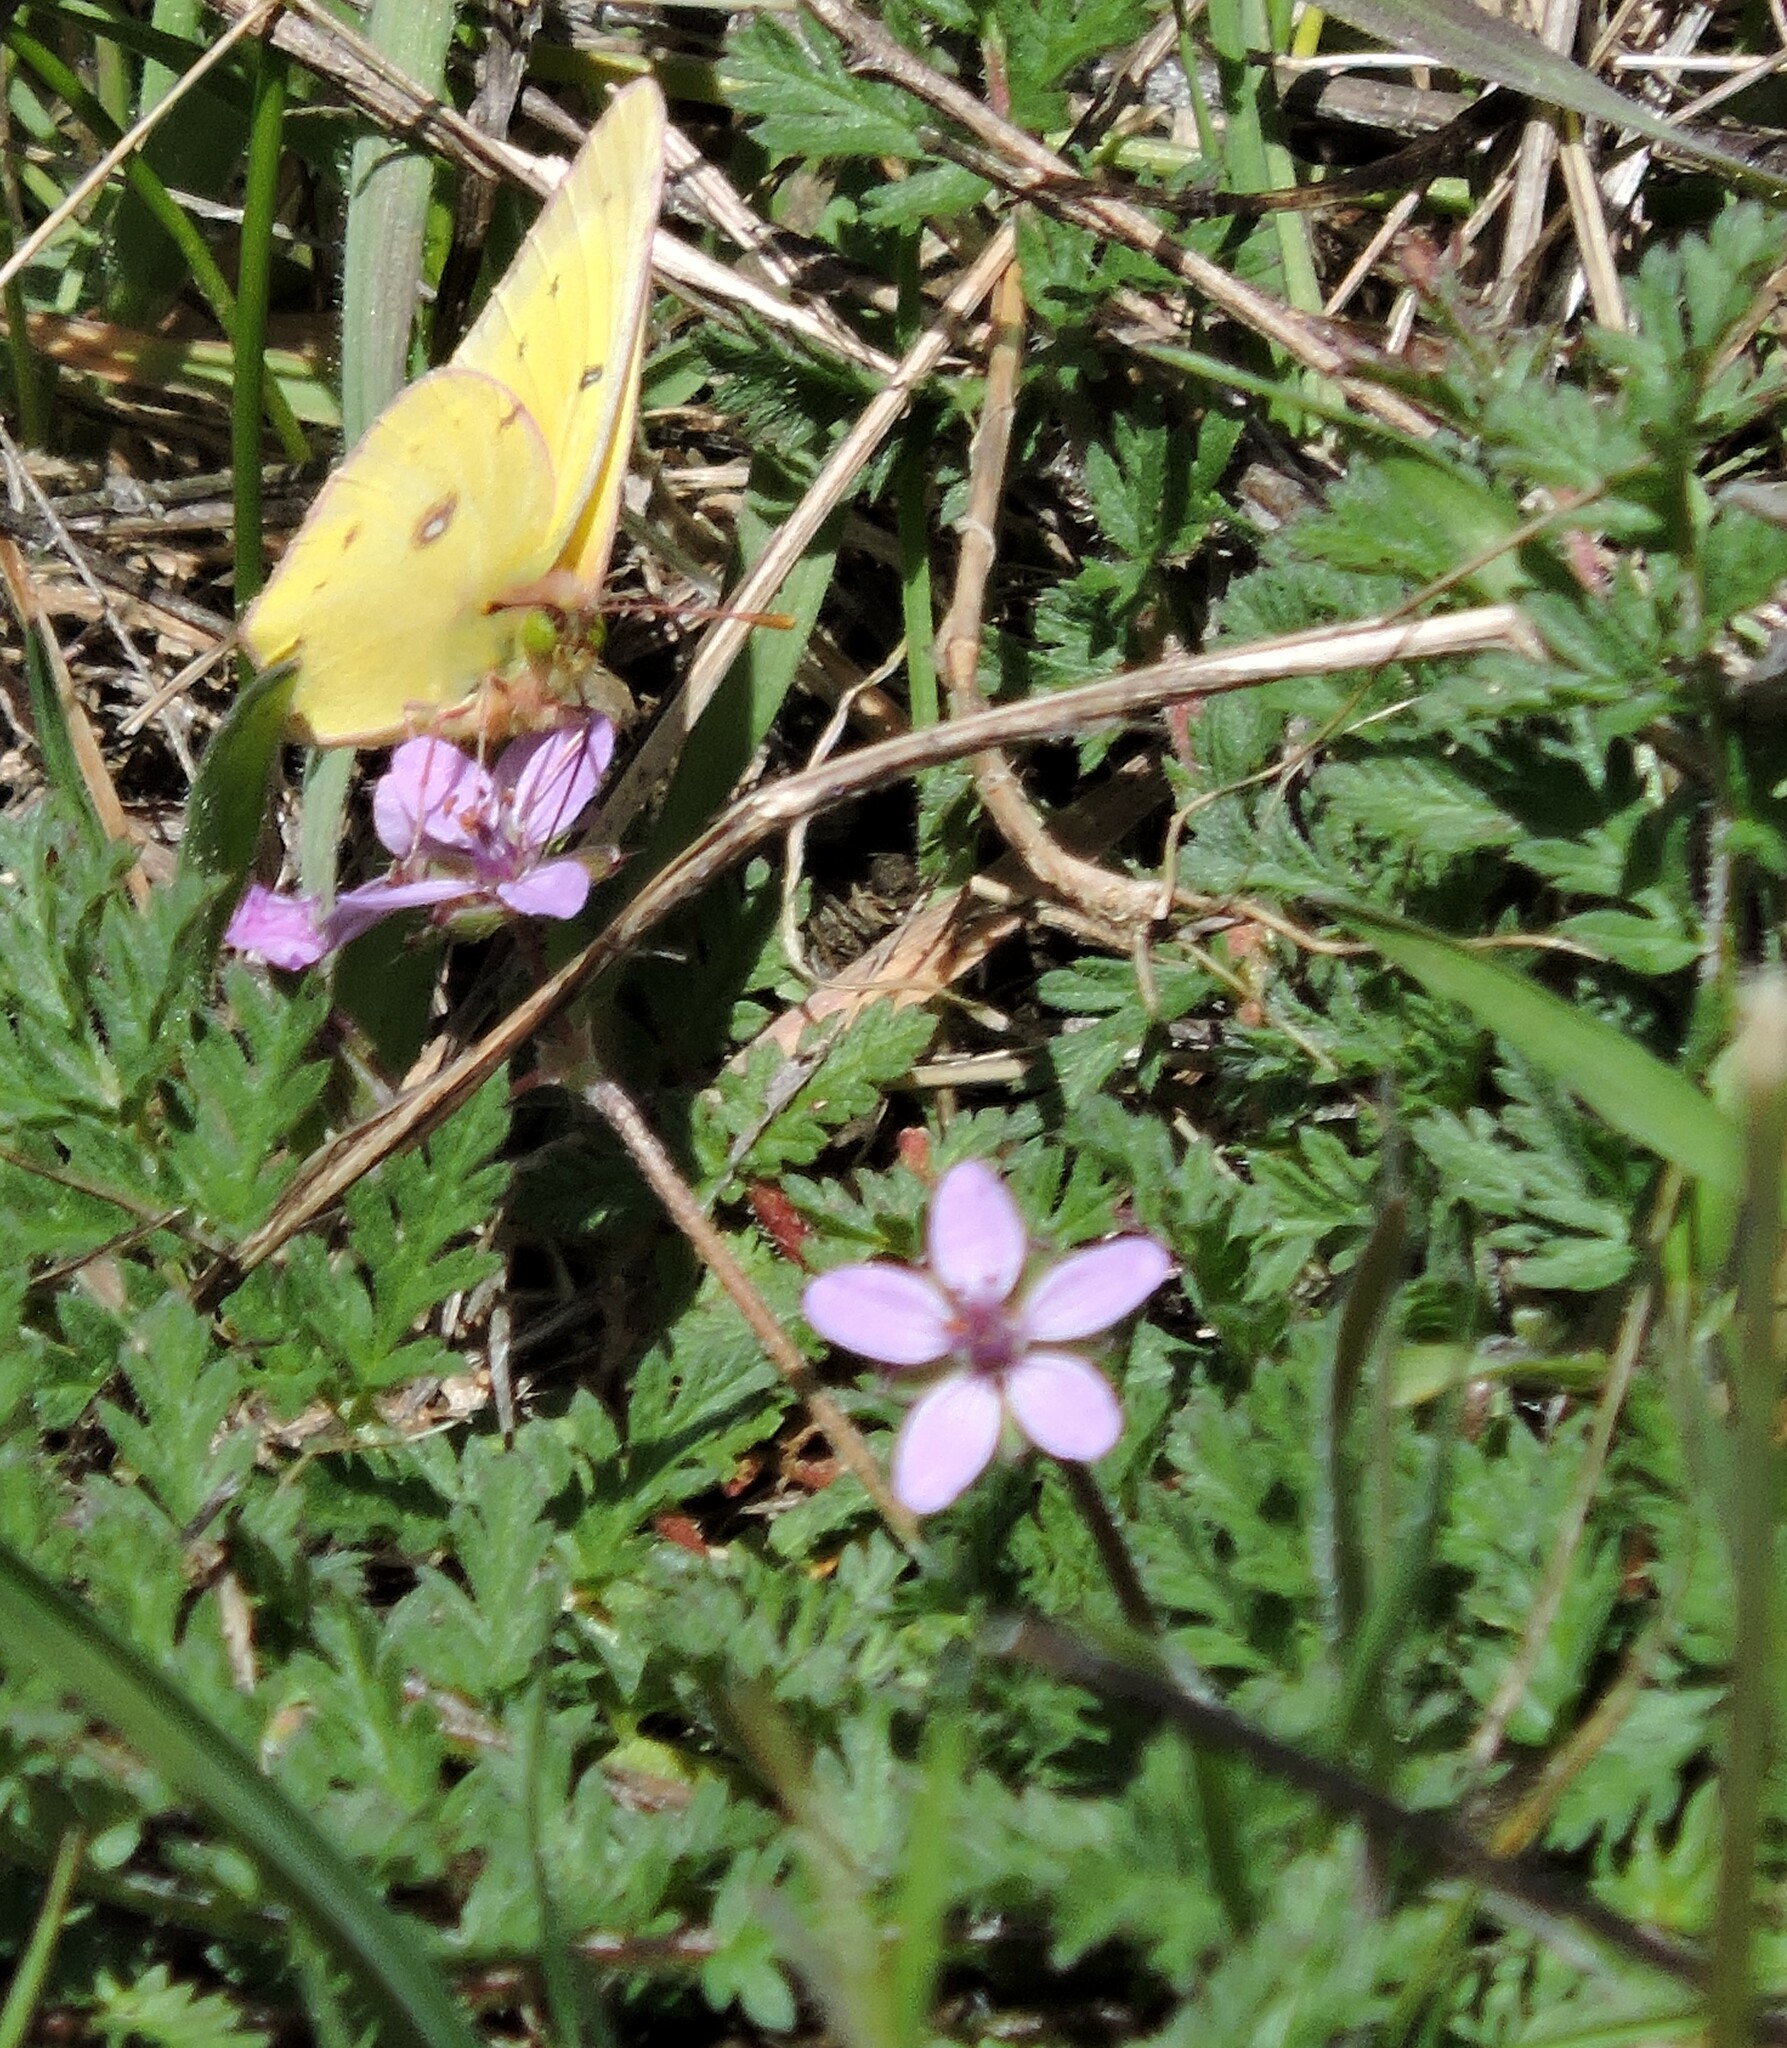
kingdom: Plantae
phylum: Tracheophyta
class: Magnoliopsida
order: Geraniales
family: Geraniaceae
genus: Erodium
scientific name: Erodium cicutarium
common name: Common stork's-bill
